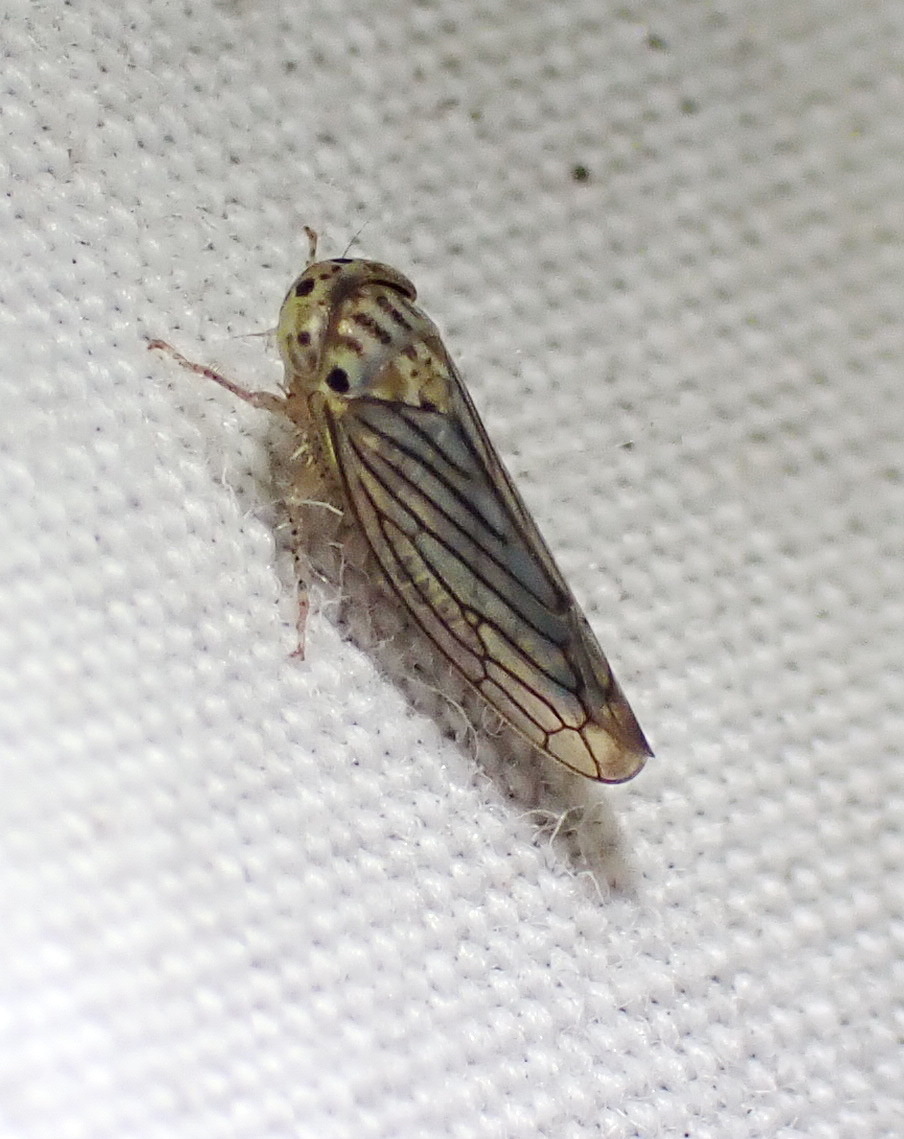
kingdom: Animalia
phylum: Arthropoda
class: Insecta
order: Hemiptera
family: Cicadellidae
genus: Ollarianus
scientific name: Ollarianus armus
